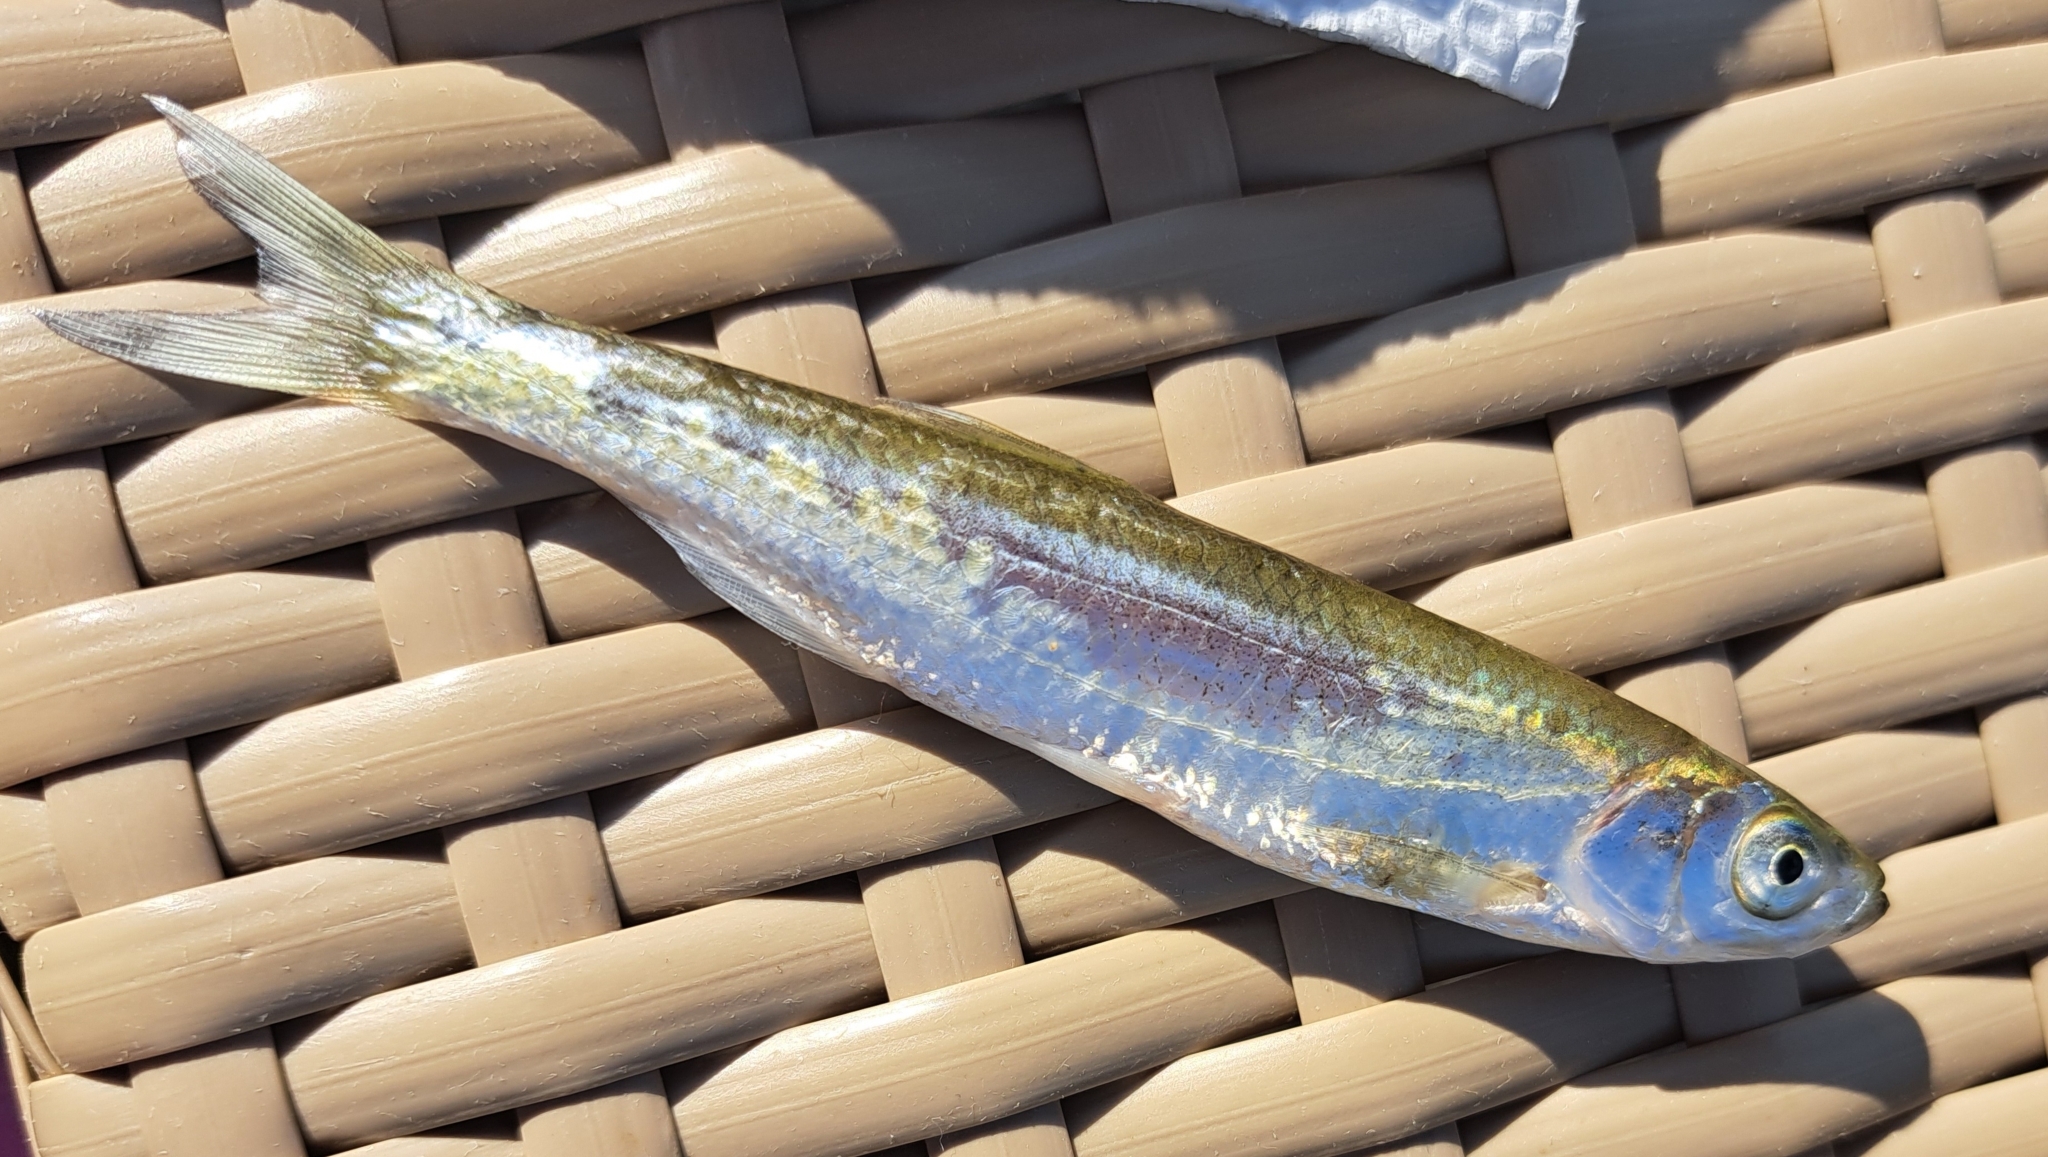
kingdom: Animalia
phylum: Chordata
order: Cypriniformes
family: Cyprinidae
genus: Alburnus
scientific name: Alburnus scoranza
